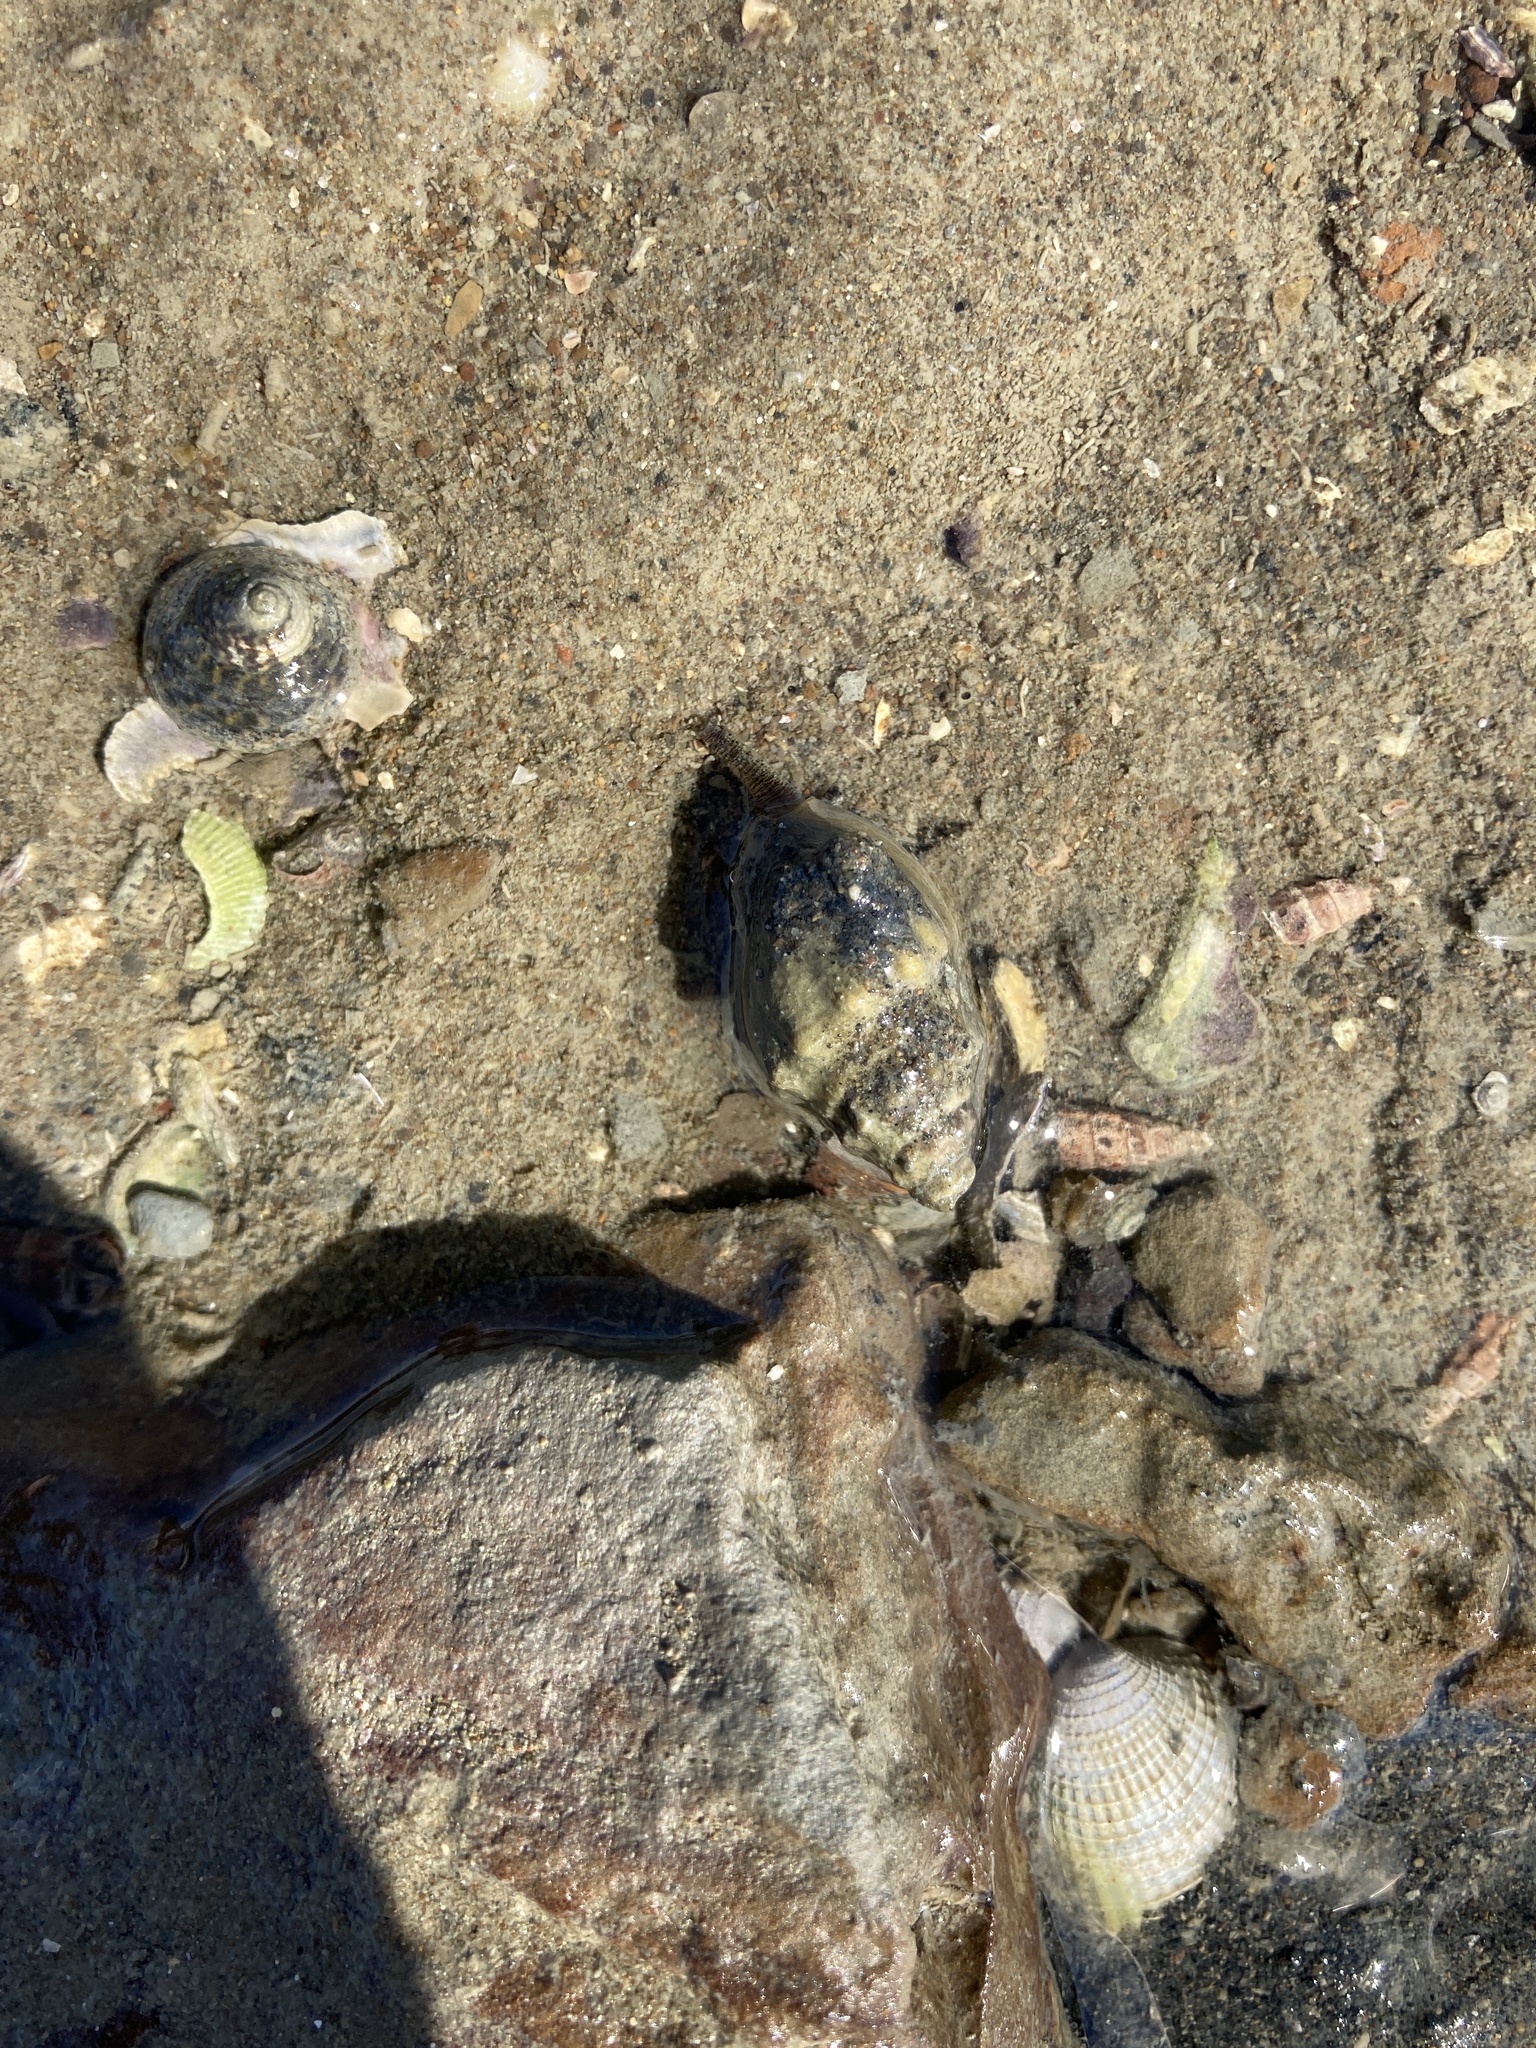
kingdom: Animalia
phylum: Mollusca
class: Gastropoda
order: Trochida
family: Trochidae
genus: Diloma
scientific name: Diloma subrostratum
